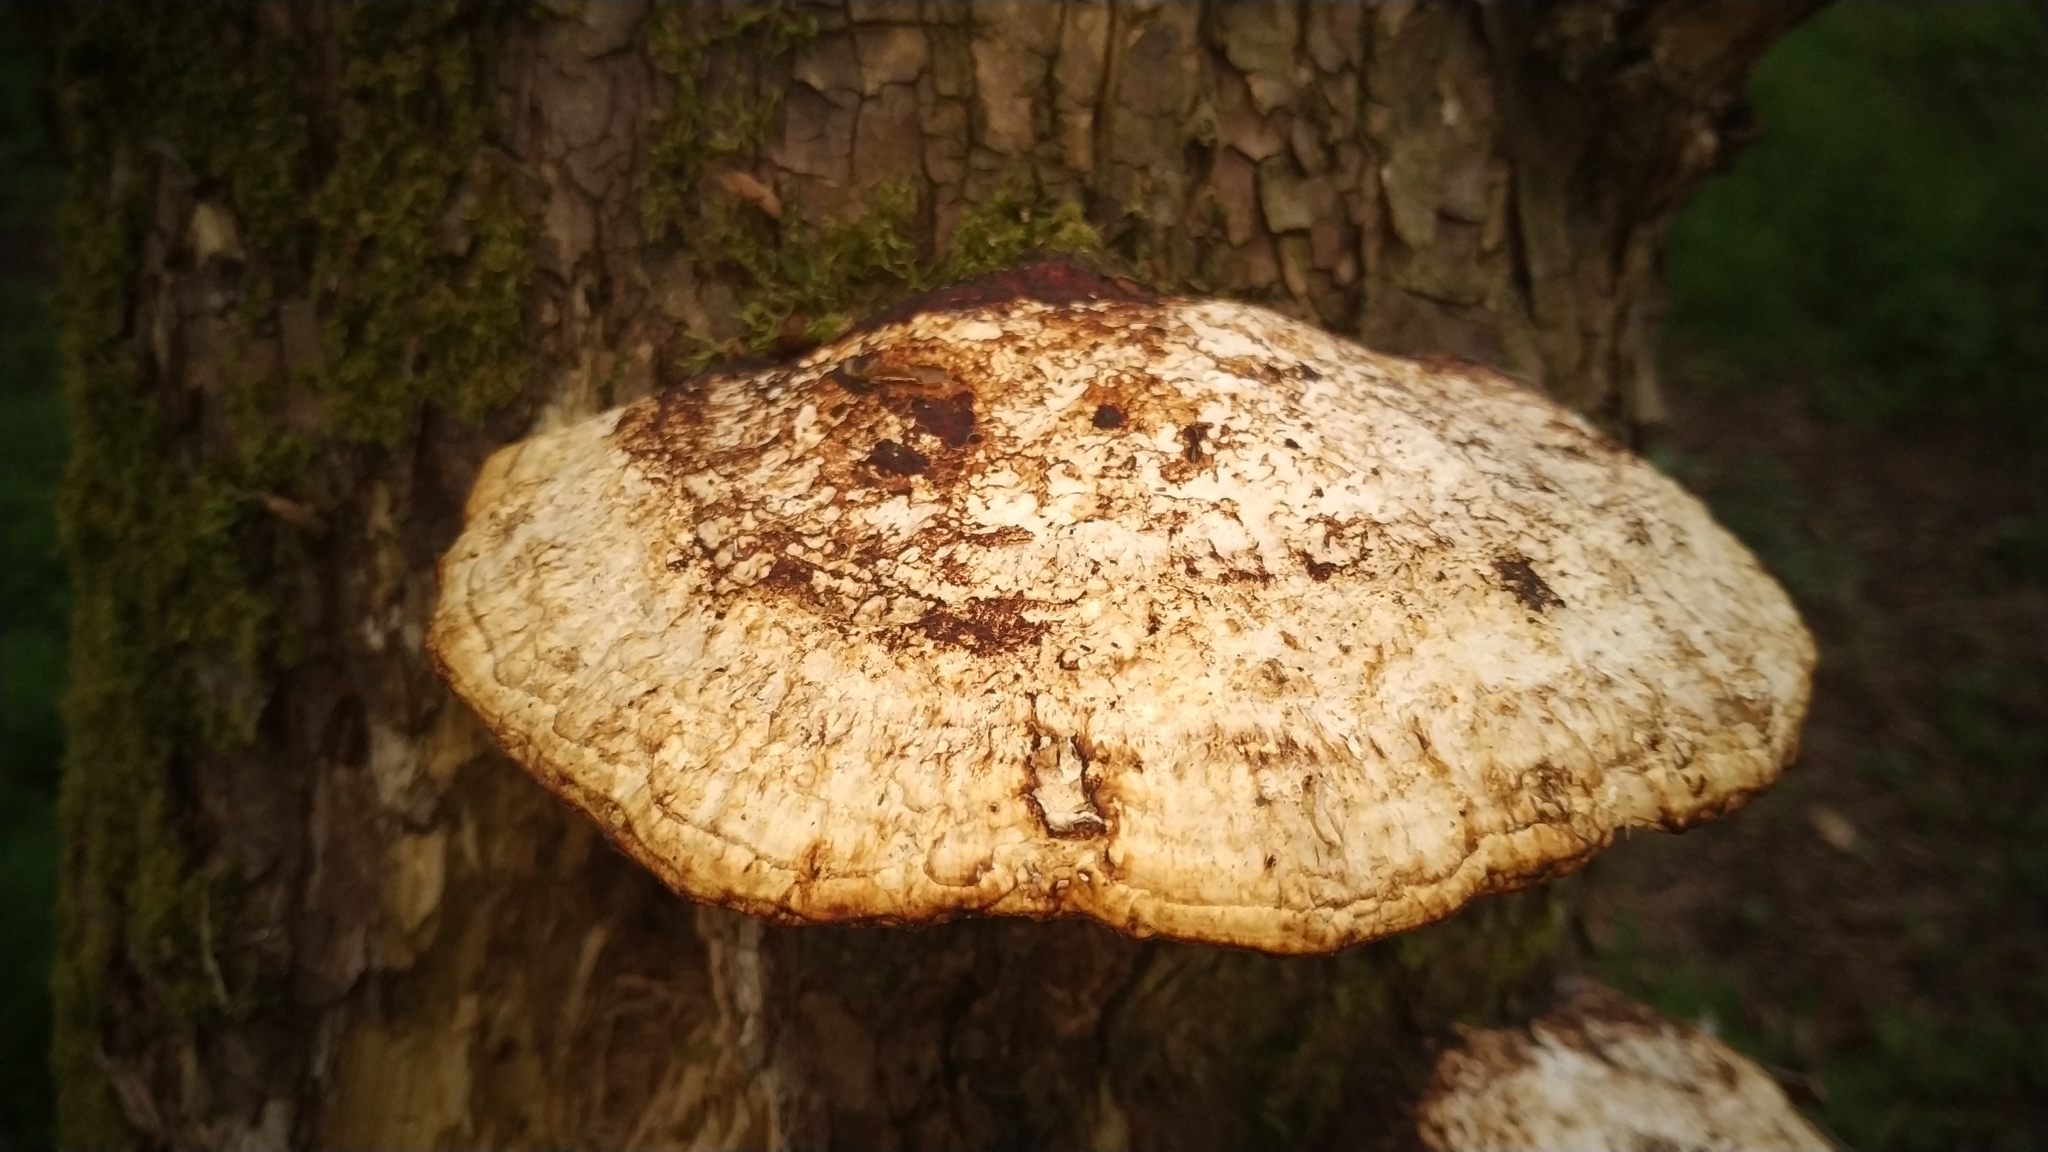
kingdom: Fungi
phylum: Basidiomycota
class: Agaricomycetes
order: Polyporales
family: Polyporaceae
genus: Daedaleopsis
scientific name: Daedaleopsis confragosa
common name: Blushing bracket
